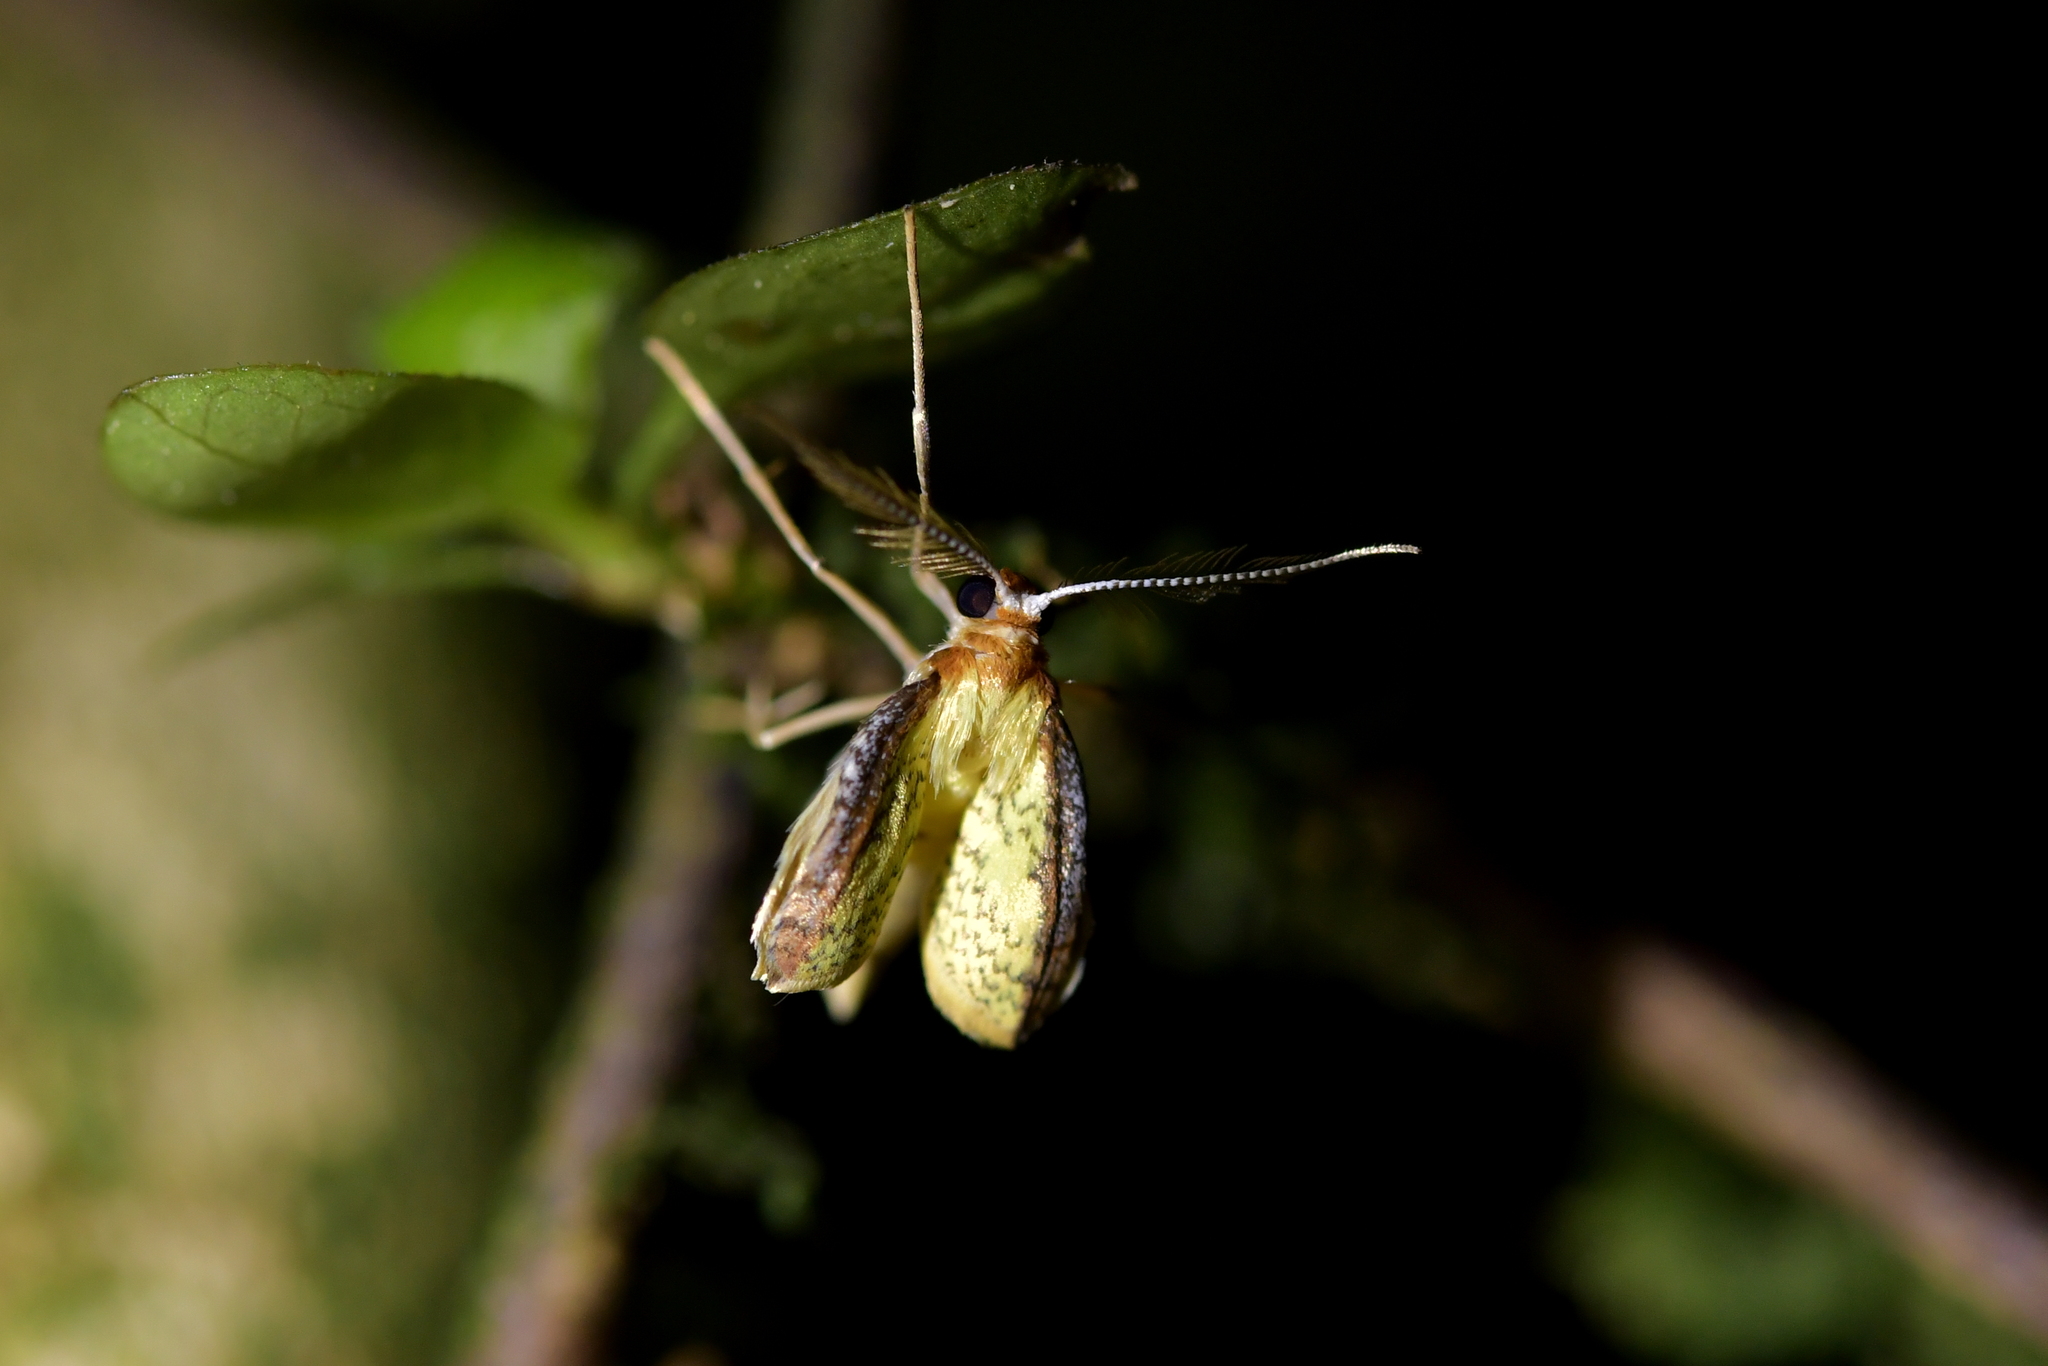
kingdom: Animalia
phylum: Arthropoda
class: Insecta
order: Lepidoptera
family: Geometridae
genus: Epiphryne
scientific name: Epiphryne undosata
